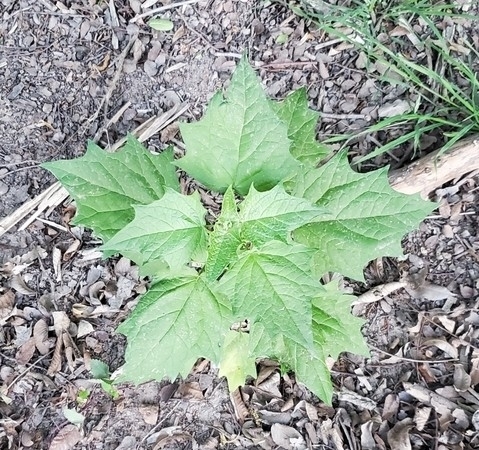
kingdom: Plantae
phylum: Tracheophyta
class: Magnoliopsida
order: Solanales
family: Solanaceae
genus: Datura
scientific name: Datura stramonium
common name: Thorn-apple
